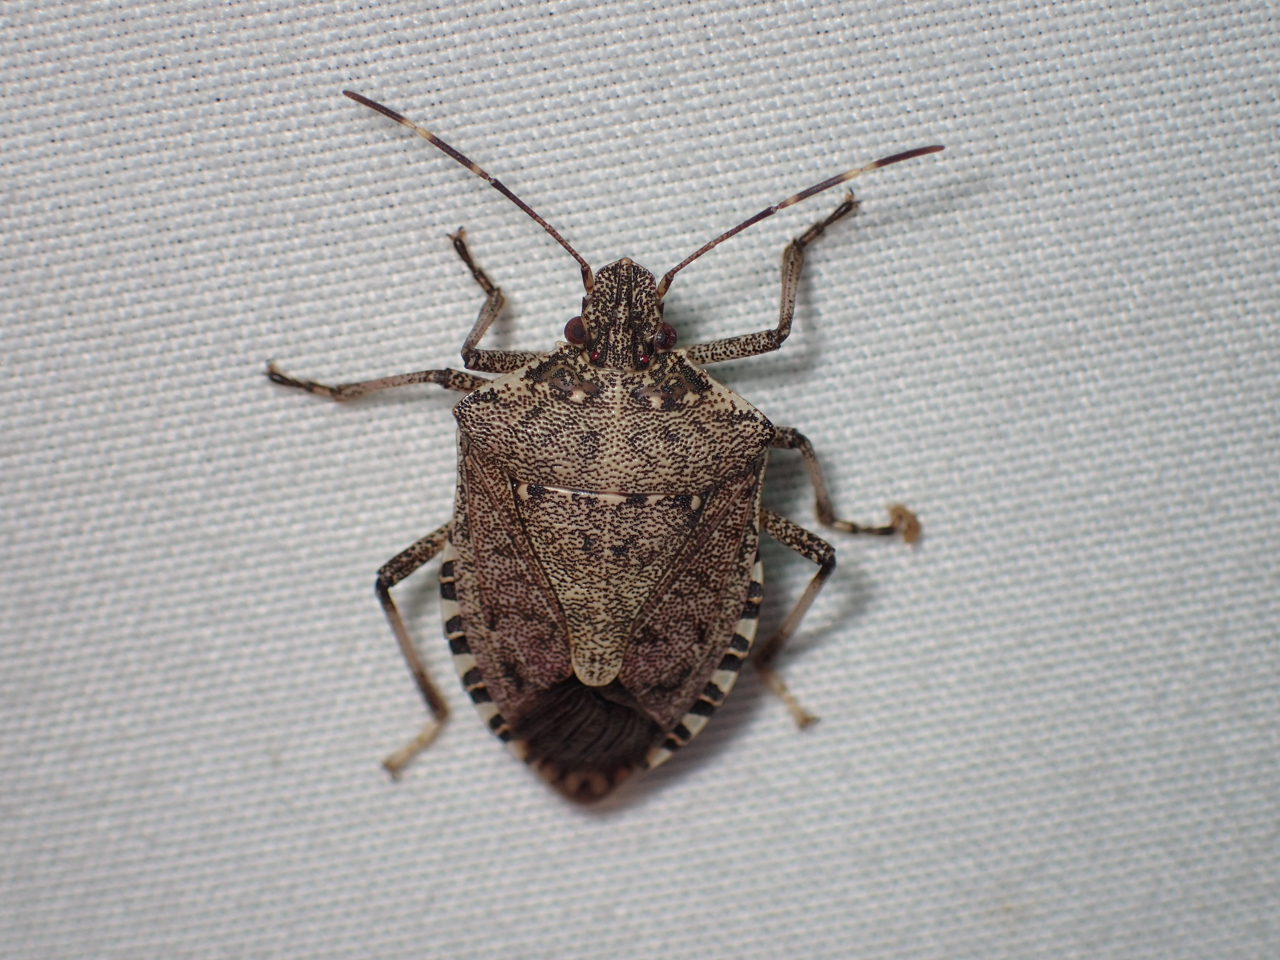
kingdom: Animalia
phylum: Arthropoda
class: Insecta
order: Hemiptera
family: Pentatomidae
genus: Halyomorpha
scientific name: Halyomorpha halys
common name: Brown marmorated stink bug
